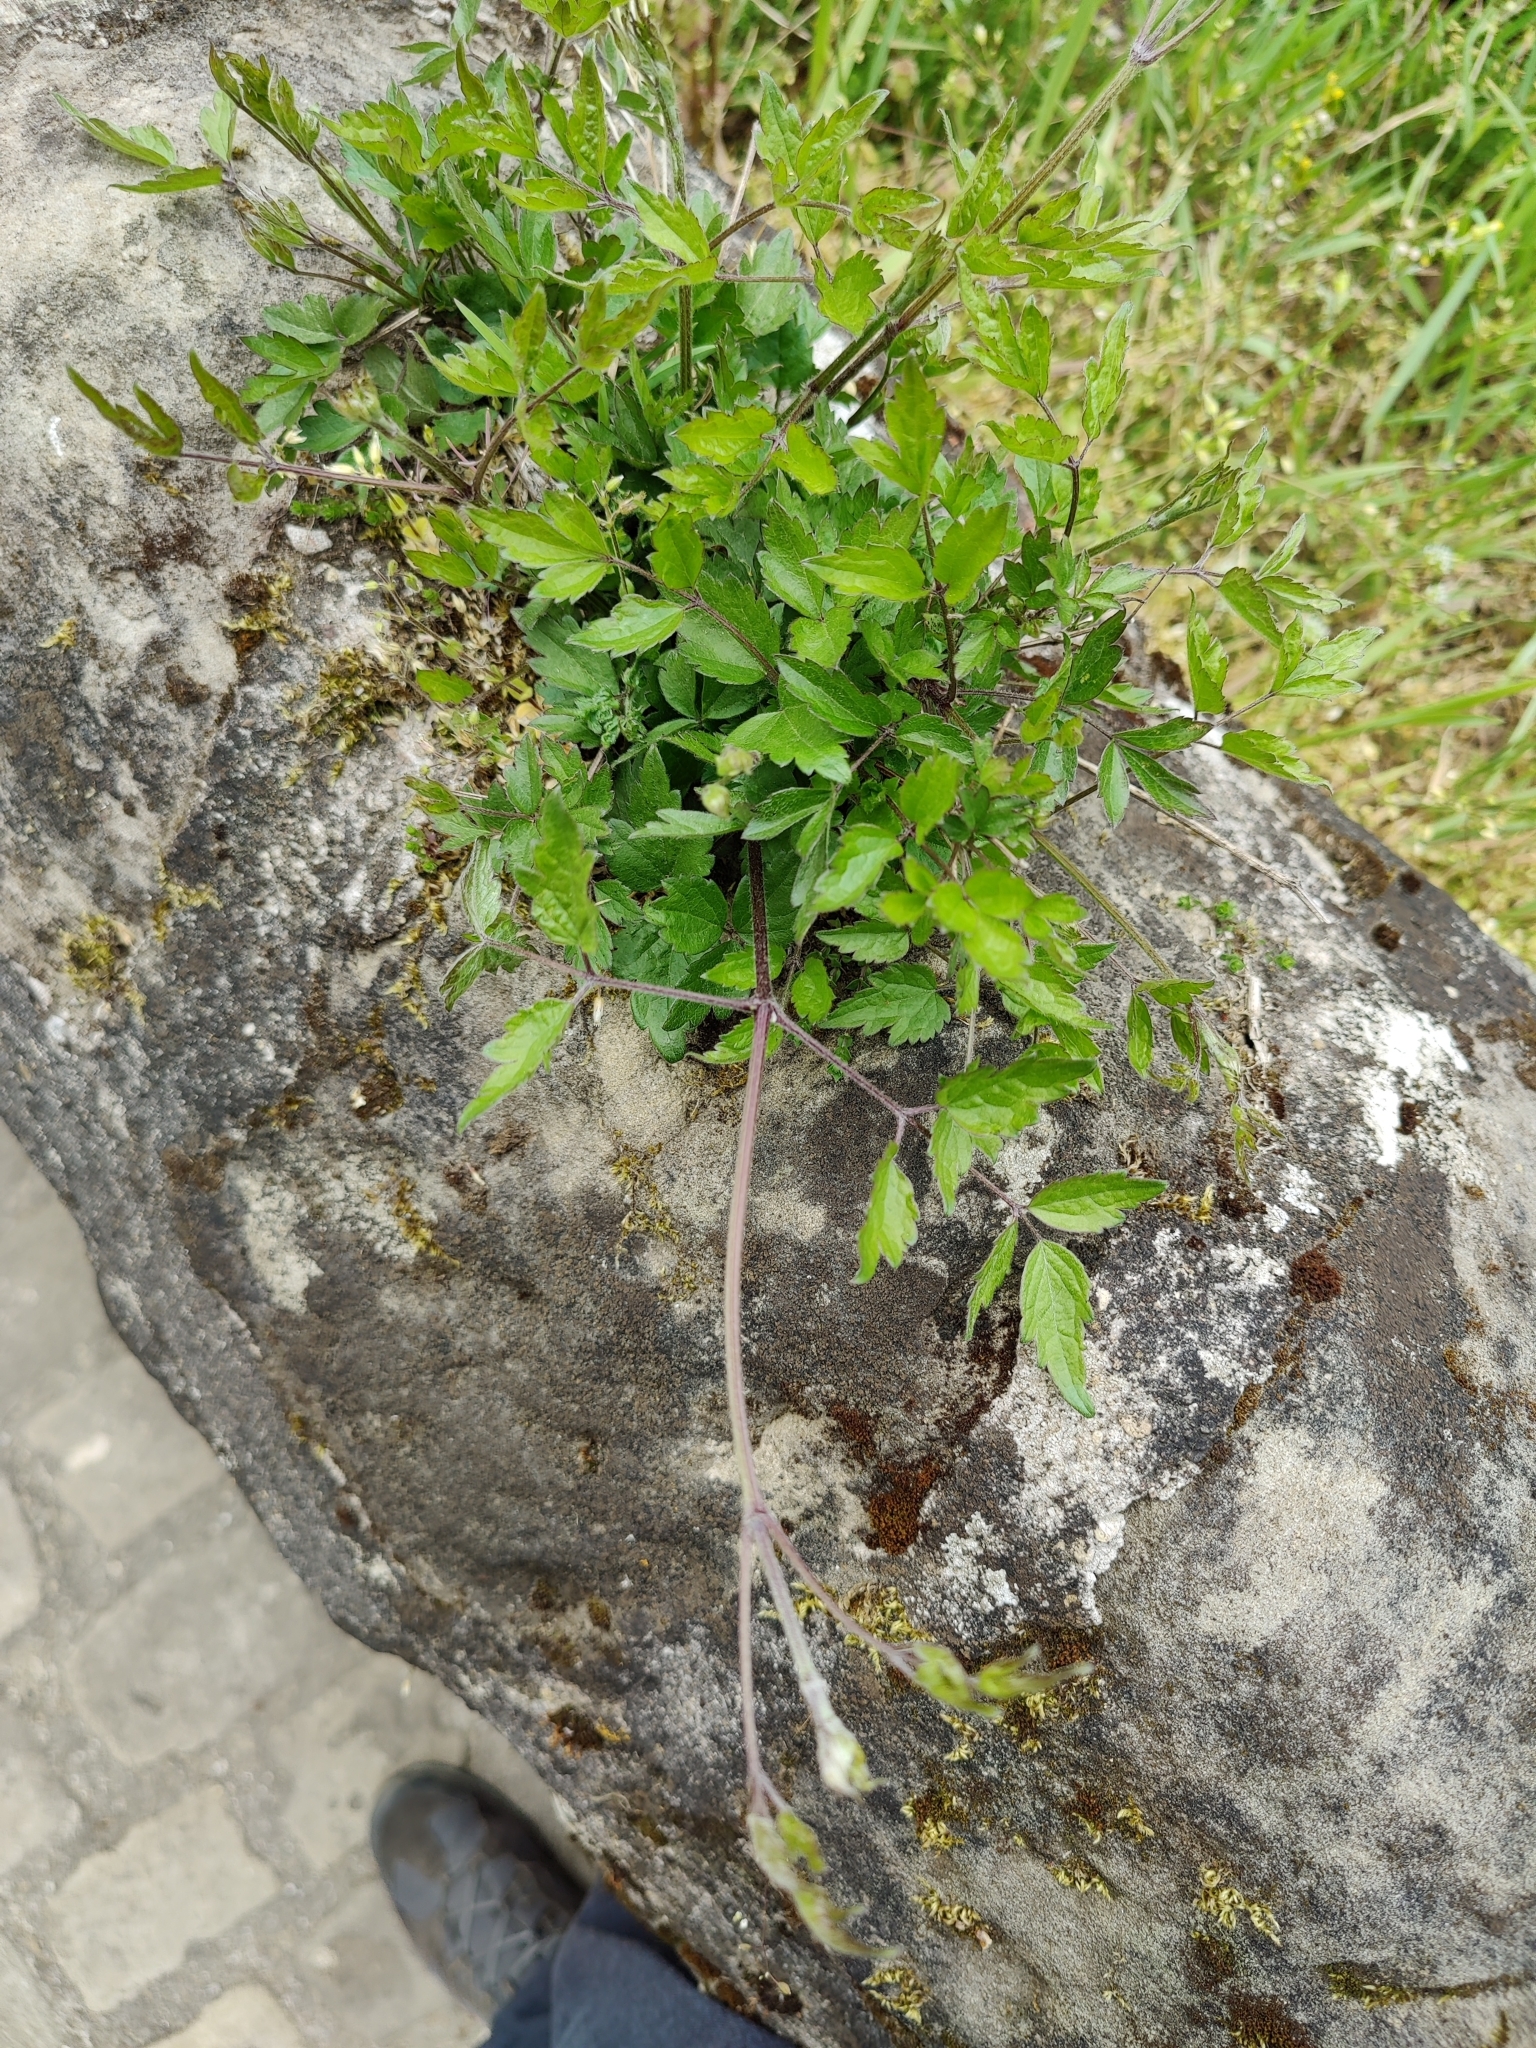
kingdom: Plantae
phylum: Tracheophyta
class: Magnoliopsida
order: Ranunculales
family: Ranunculaceae
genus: Clematis
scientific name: Clematis vitalba
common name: Evergreen clematis
